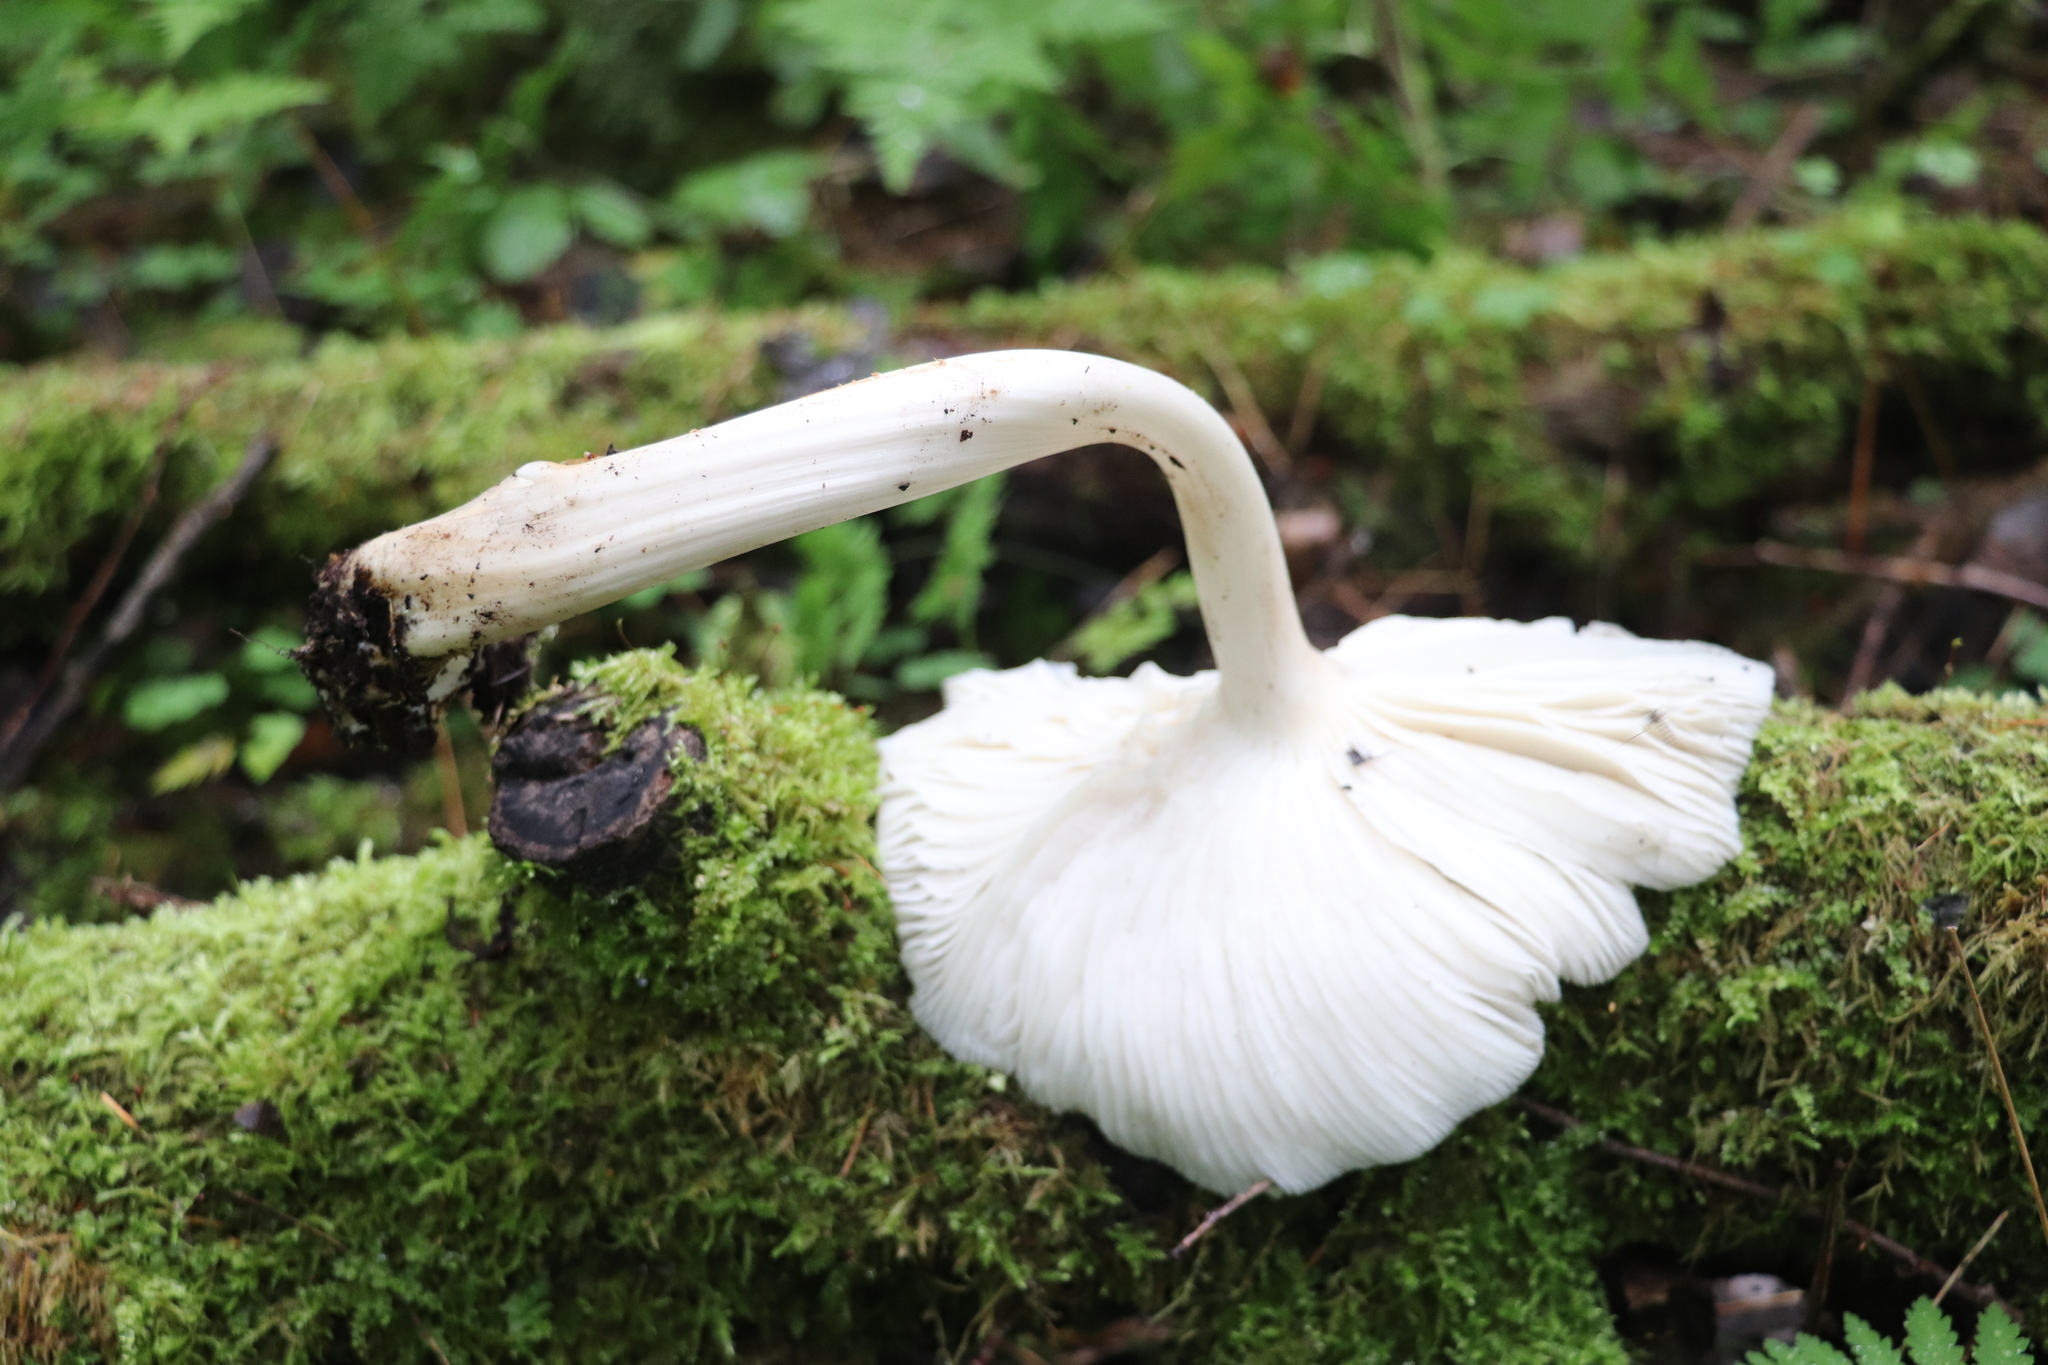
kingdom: Fungi
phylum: Basidiomycota
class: Agaricomycetes
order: Agaricales
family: Tricholomataceae
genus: Megacollybia
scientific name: Megacollybia platyphylla
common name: Whitelaced shank
